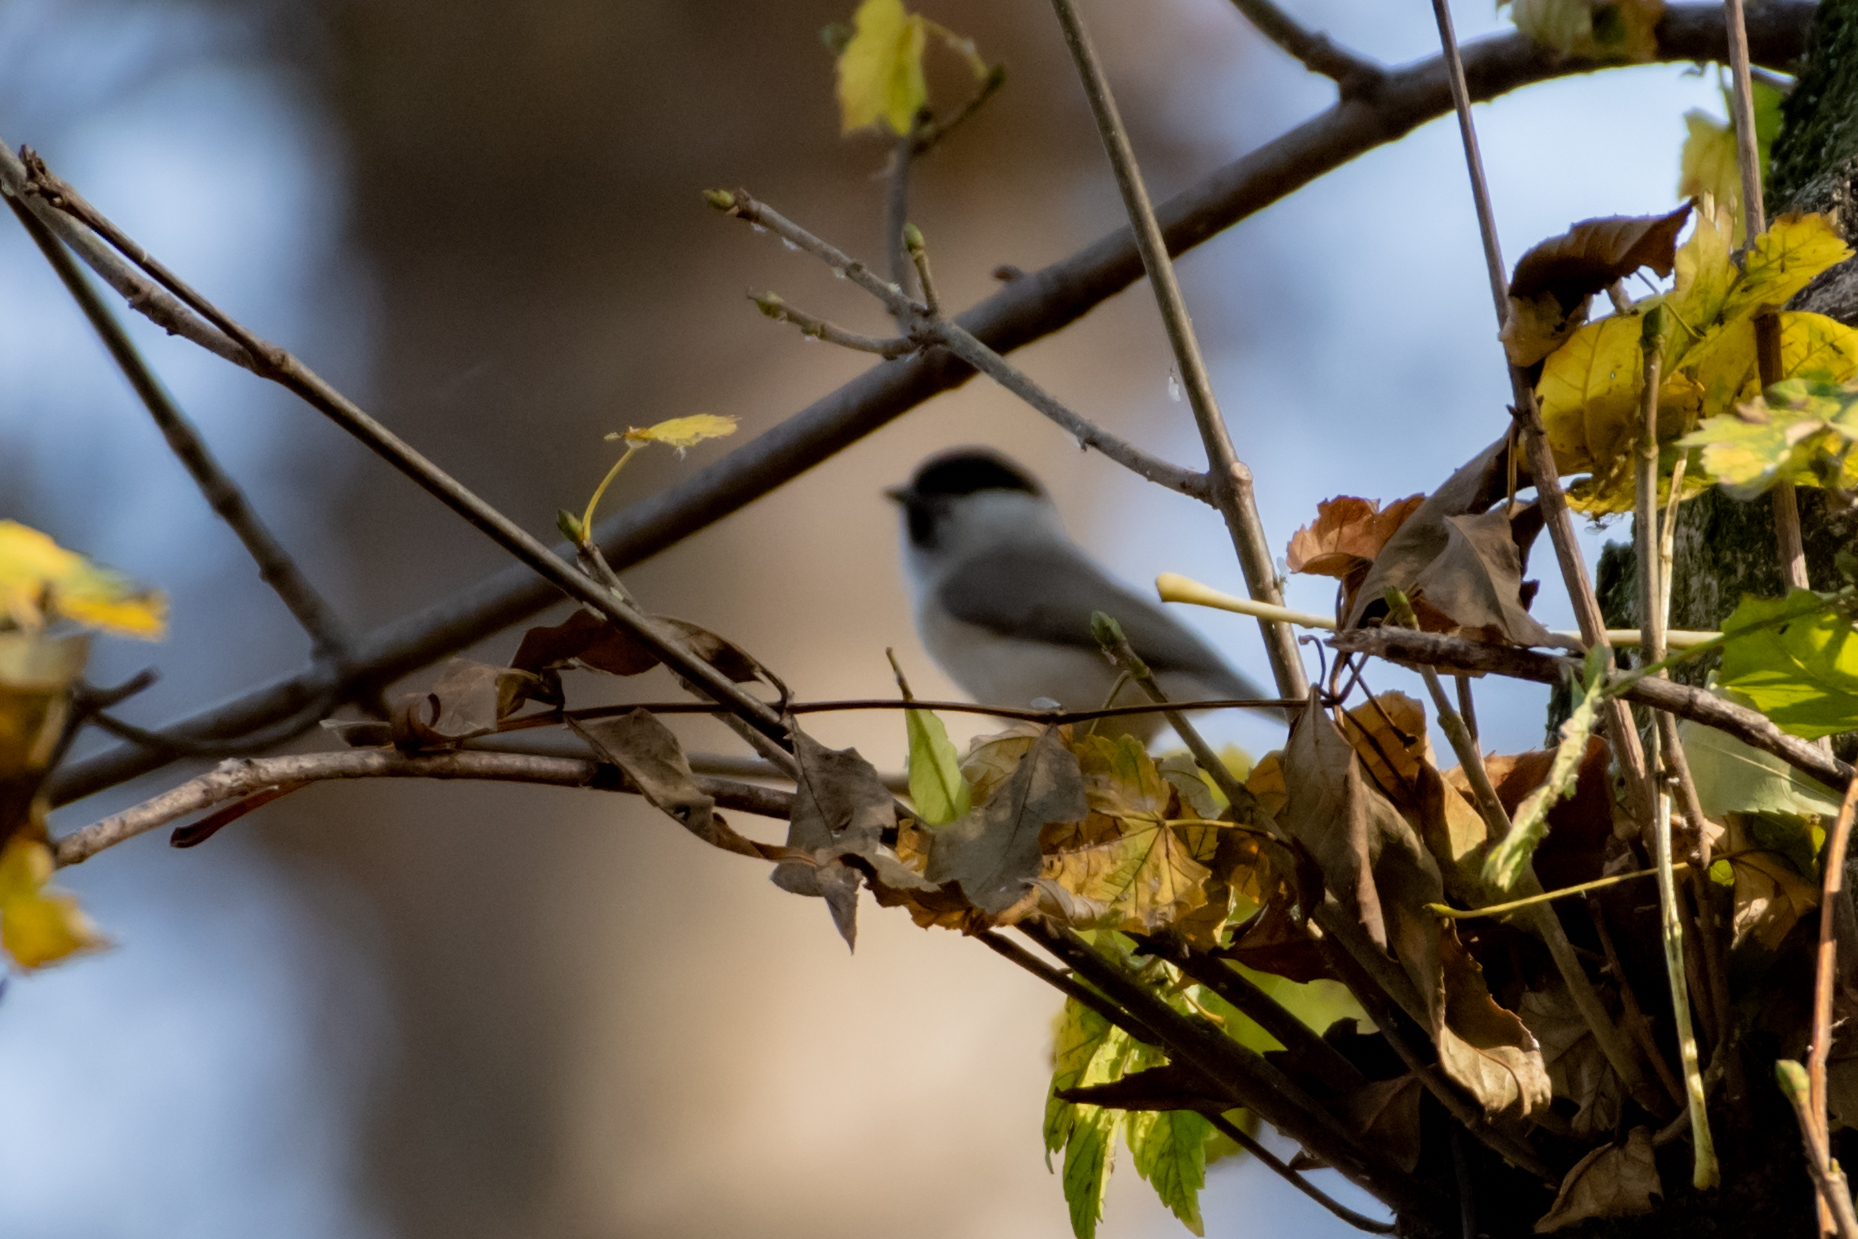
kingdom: Animalia
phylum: Chordata
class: Aves
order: Passeriformes
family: Paridae
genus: Poecile
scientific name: Poecile palustris
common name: Marsh tit
